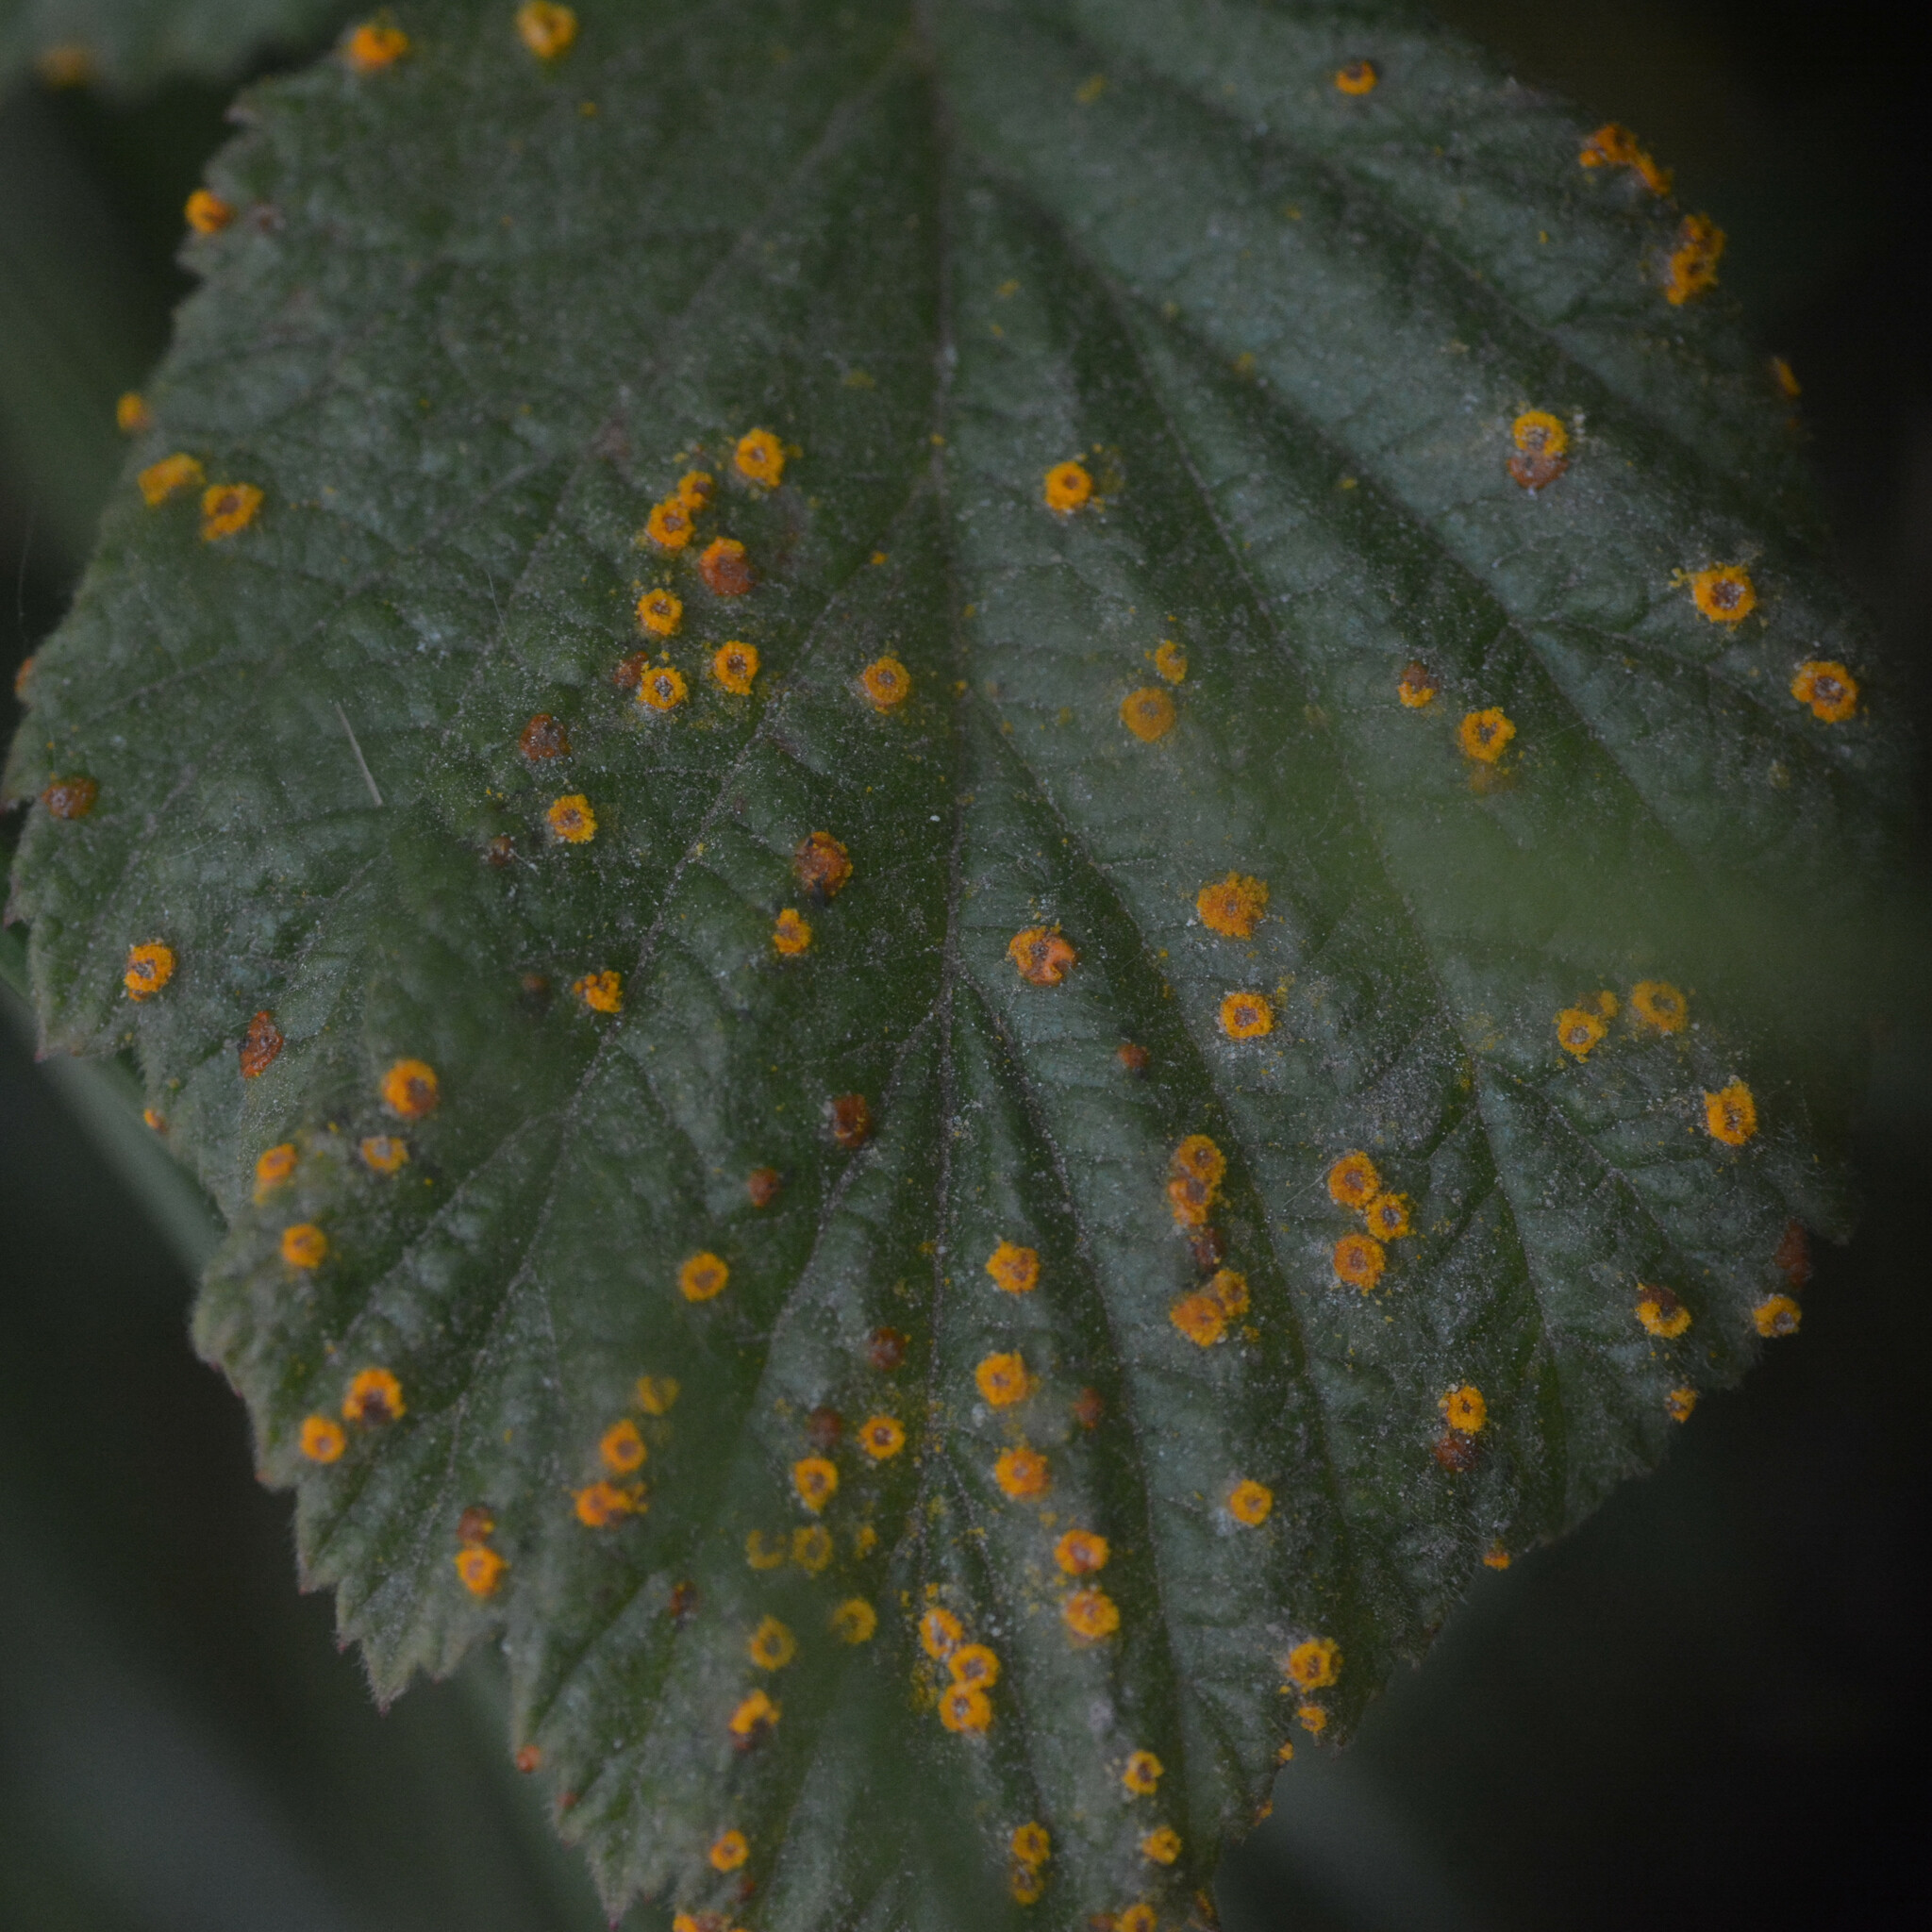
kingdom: Fungi
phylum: Basidiomycota
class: Pucciniomycetes
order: Pucciniales
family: Phragmidiaceae
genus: Phragmidium
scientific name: Phragmidium rubi-idaei
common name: Raspberry rust
